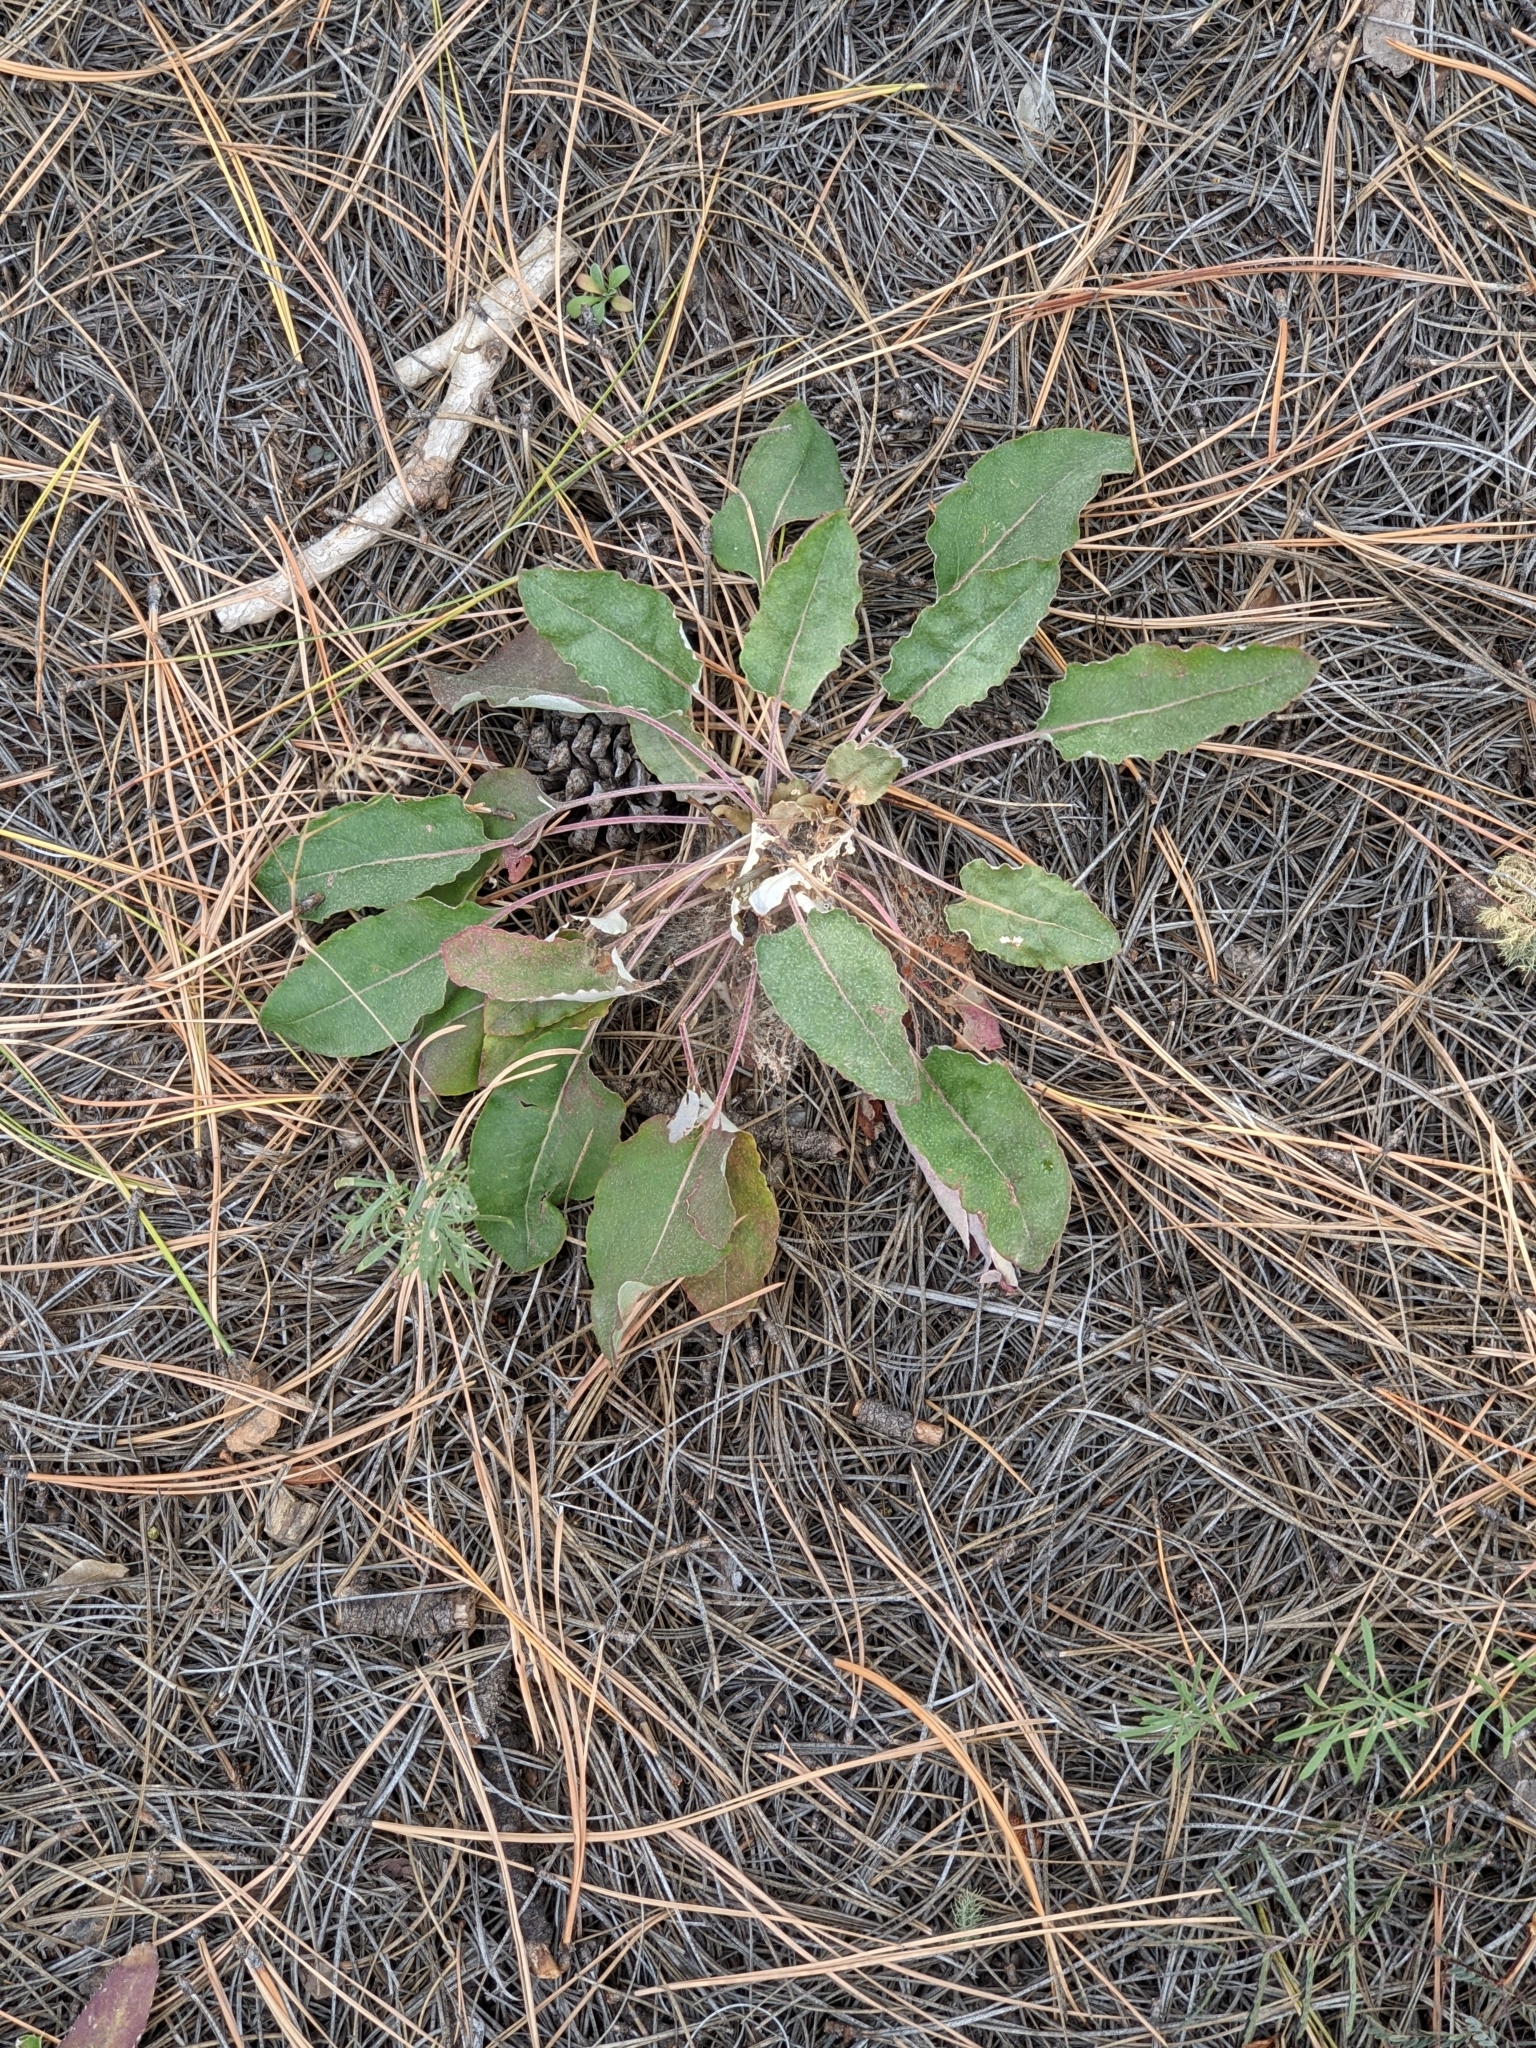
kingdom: Plantae
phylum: Tracheophyta
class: Magnoliopsida
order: Caryophyllales
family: Polygonaceae
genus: Eriogonum
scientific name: Eriogonum racemosum
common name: Redroot wild buckwheat
